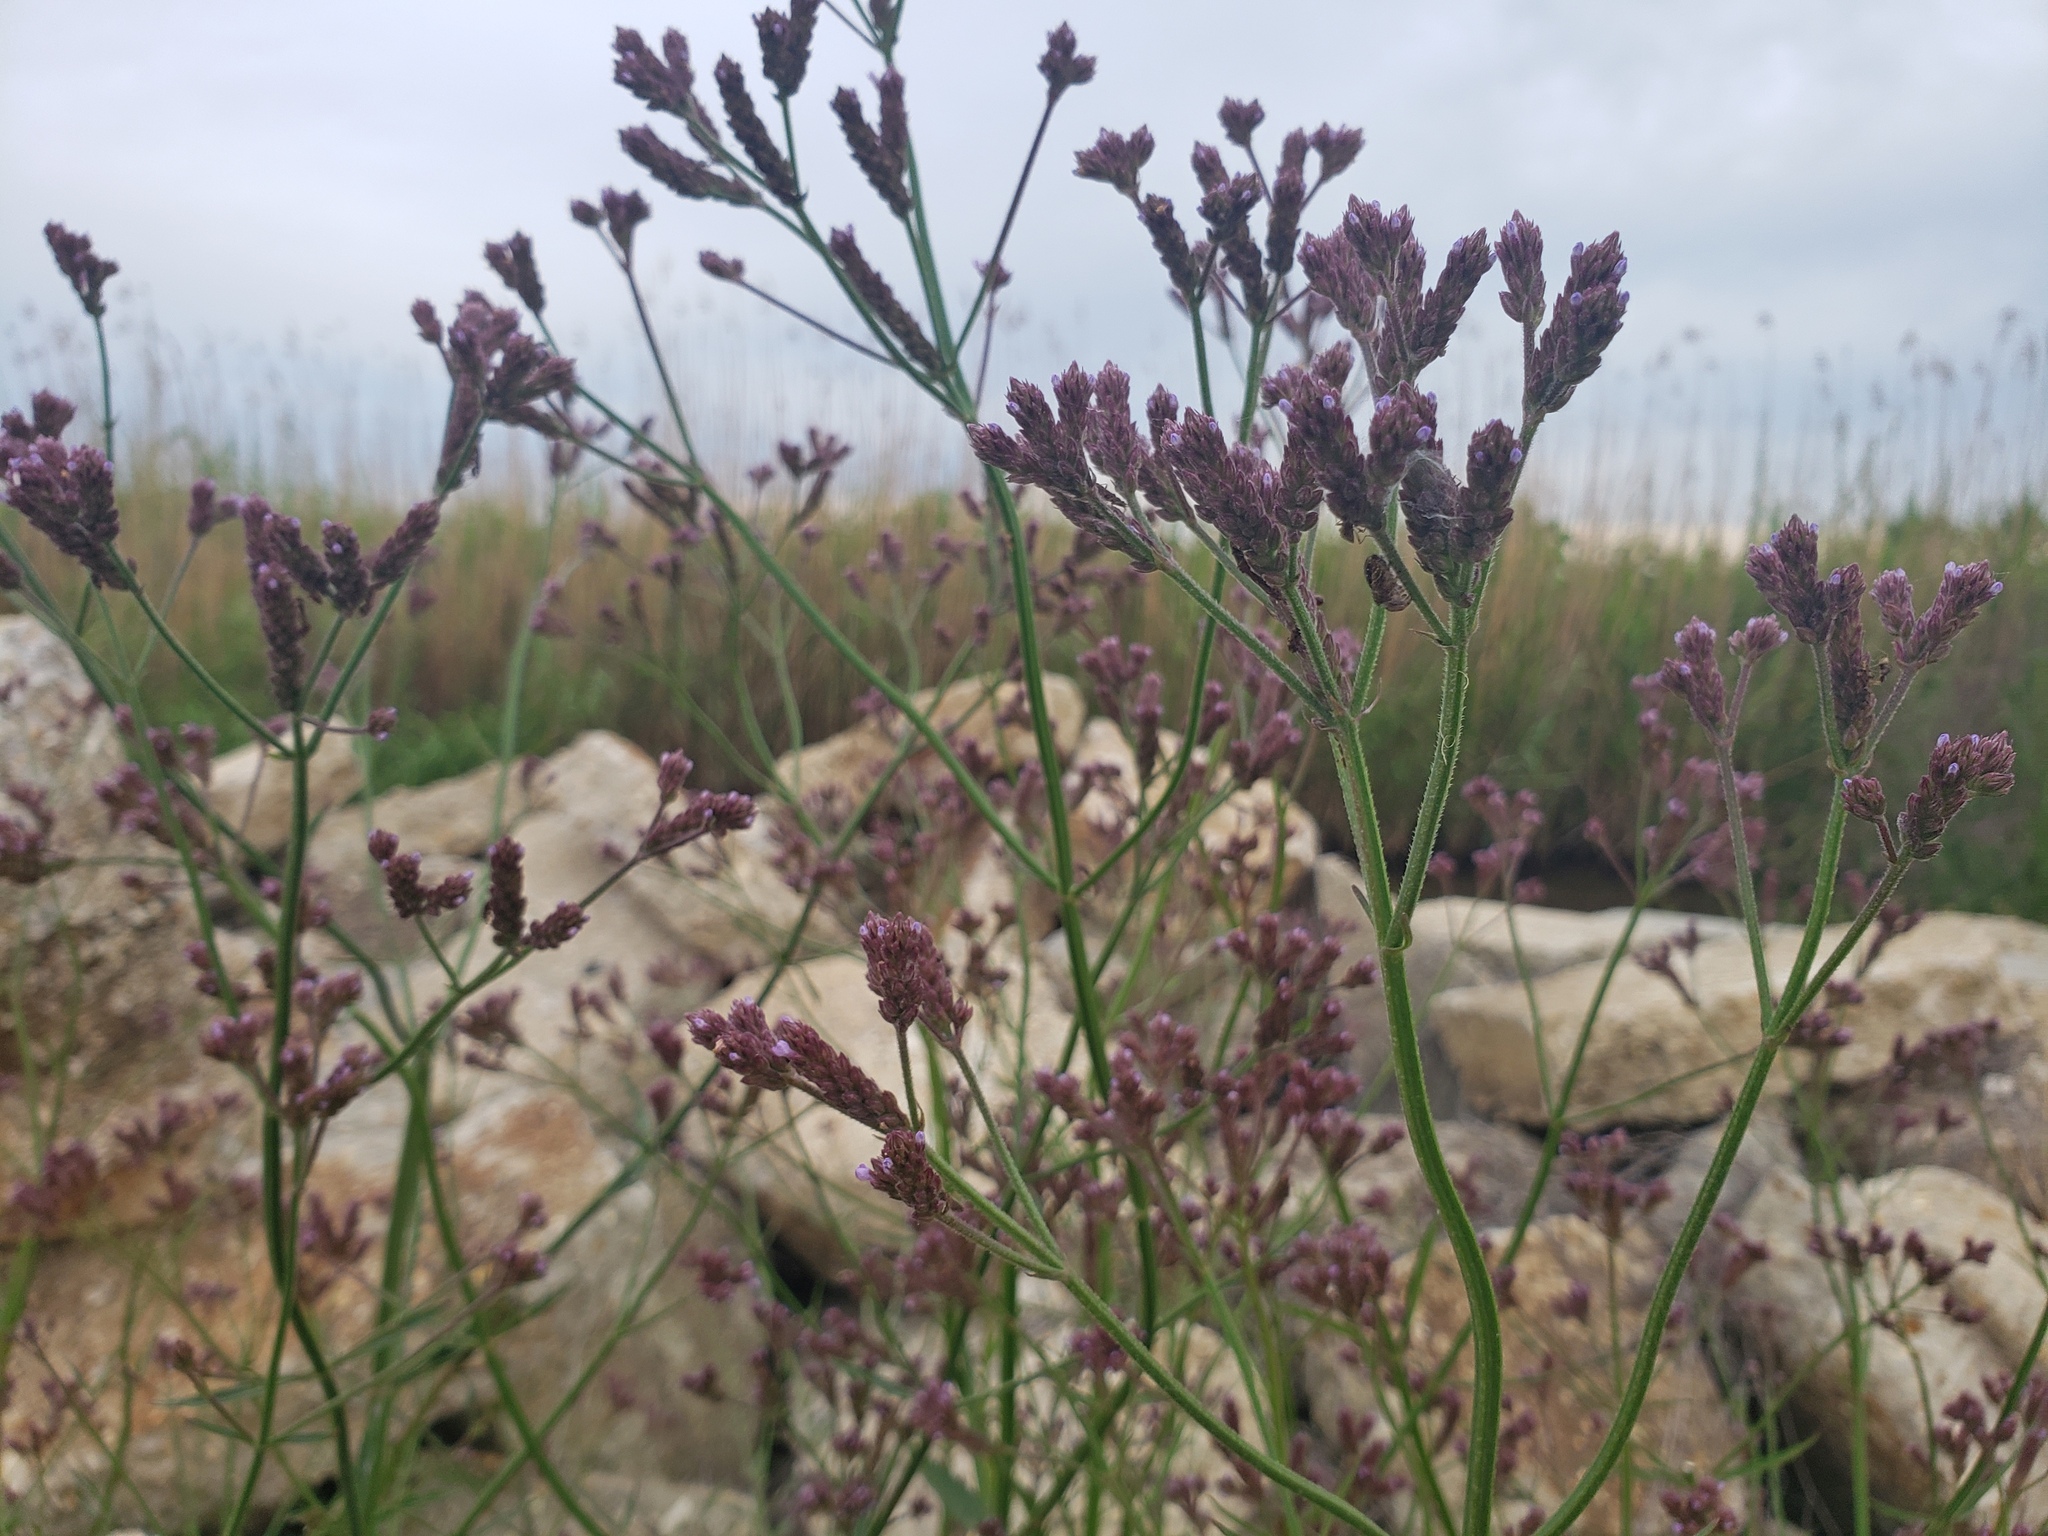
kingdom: Plantae
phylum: Tracheophyta
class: Magnoliopsida
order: Lamiales
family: Verbenaceae
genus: Verbena
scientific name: Verbena brasiliensis
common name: Brazilian vervain
